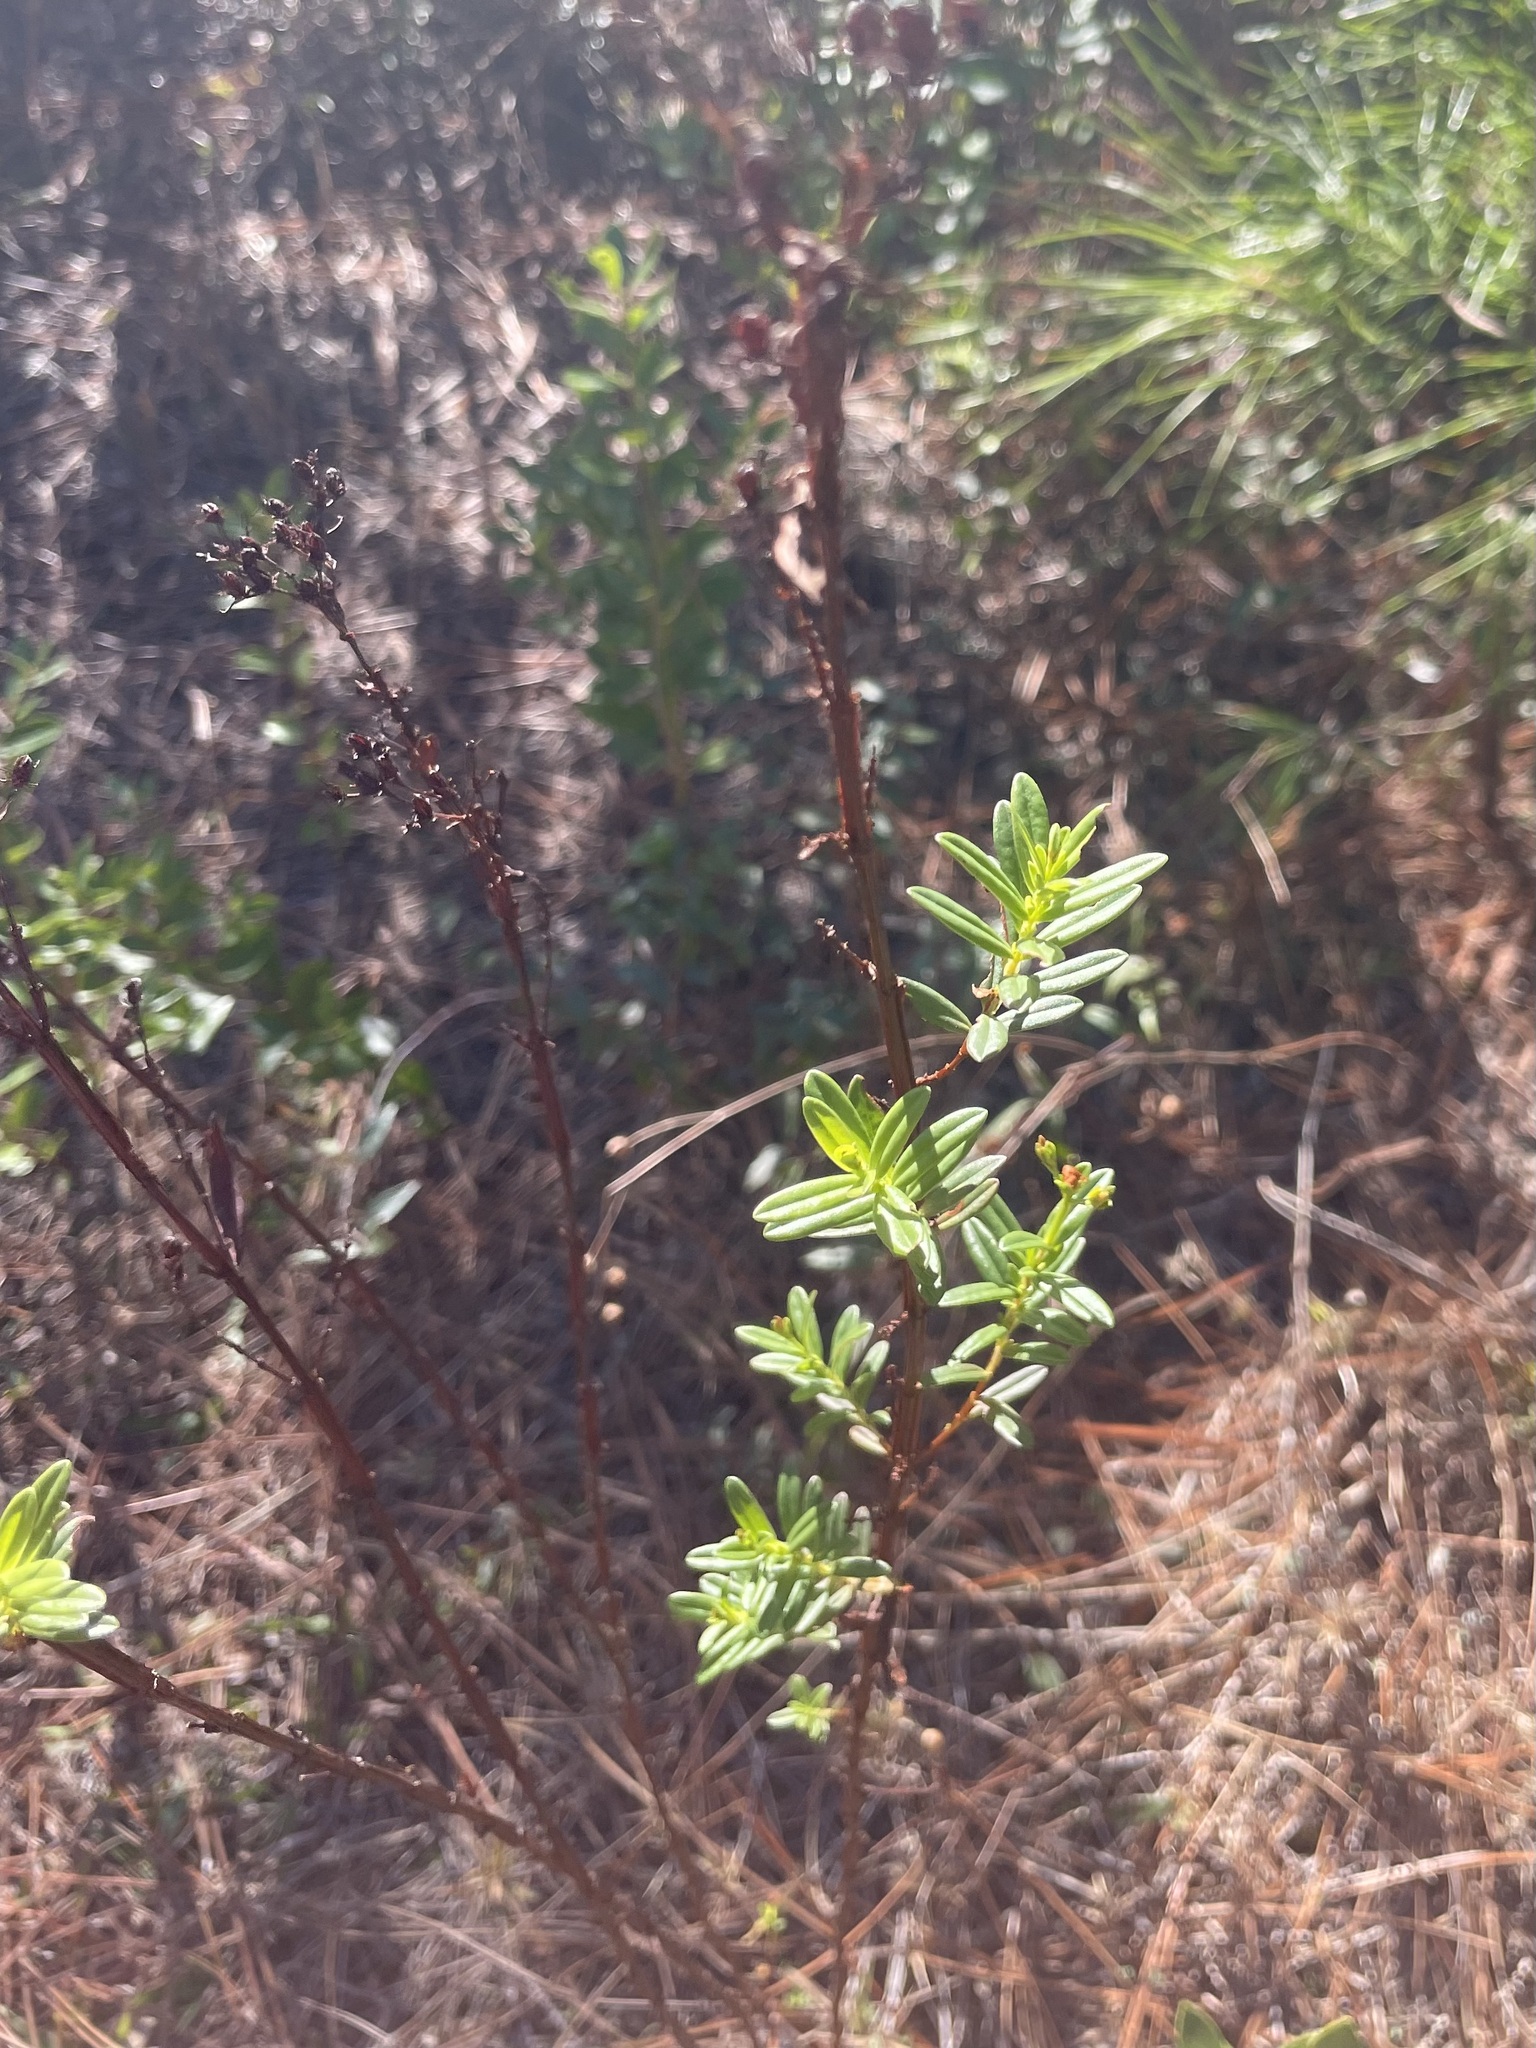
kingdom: Plantae
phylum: Tracheophyta
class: Magnoliopsida
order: Malpighiales
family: Hypericaceae
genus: Hypericum
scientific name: Hypericum cistifolium
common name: Round-pod st. john's-wort
